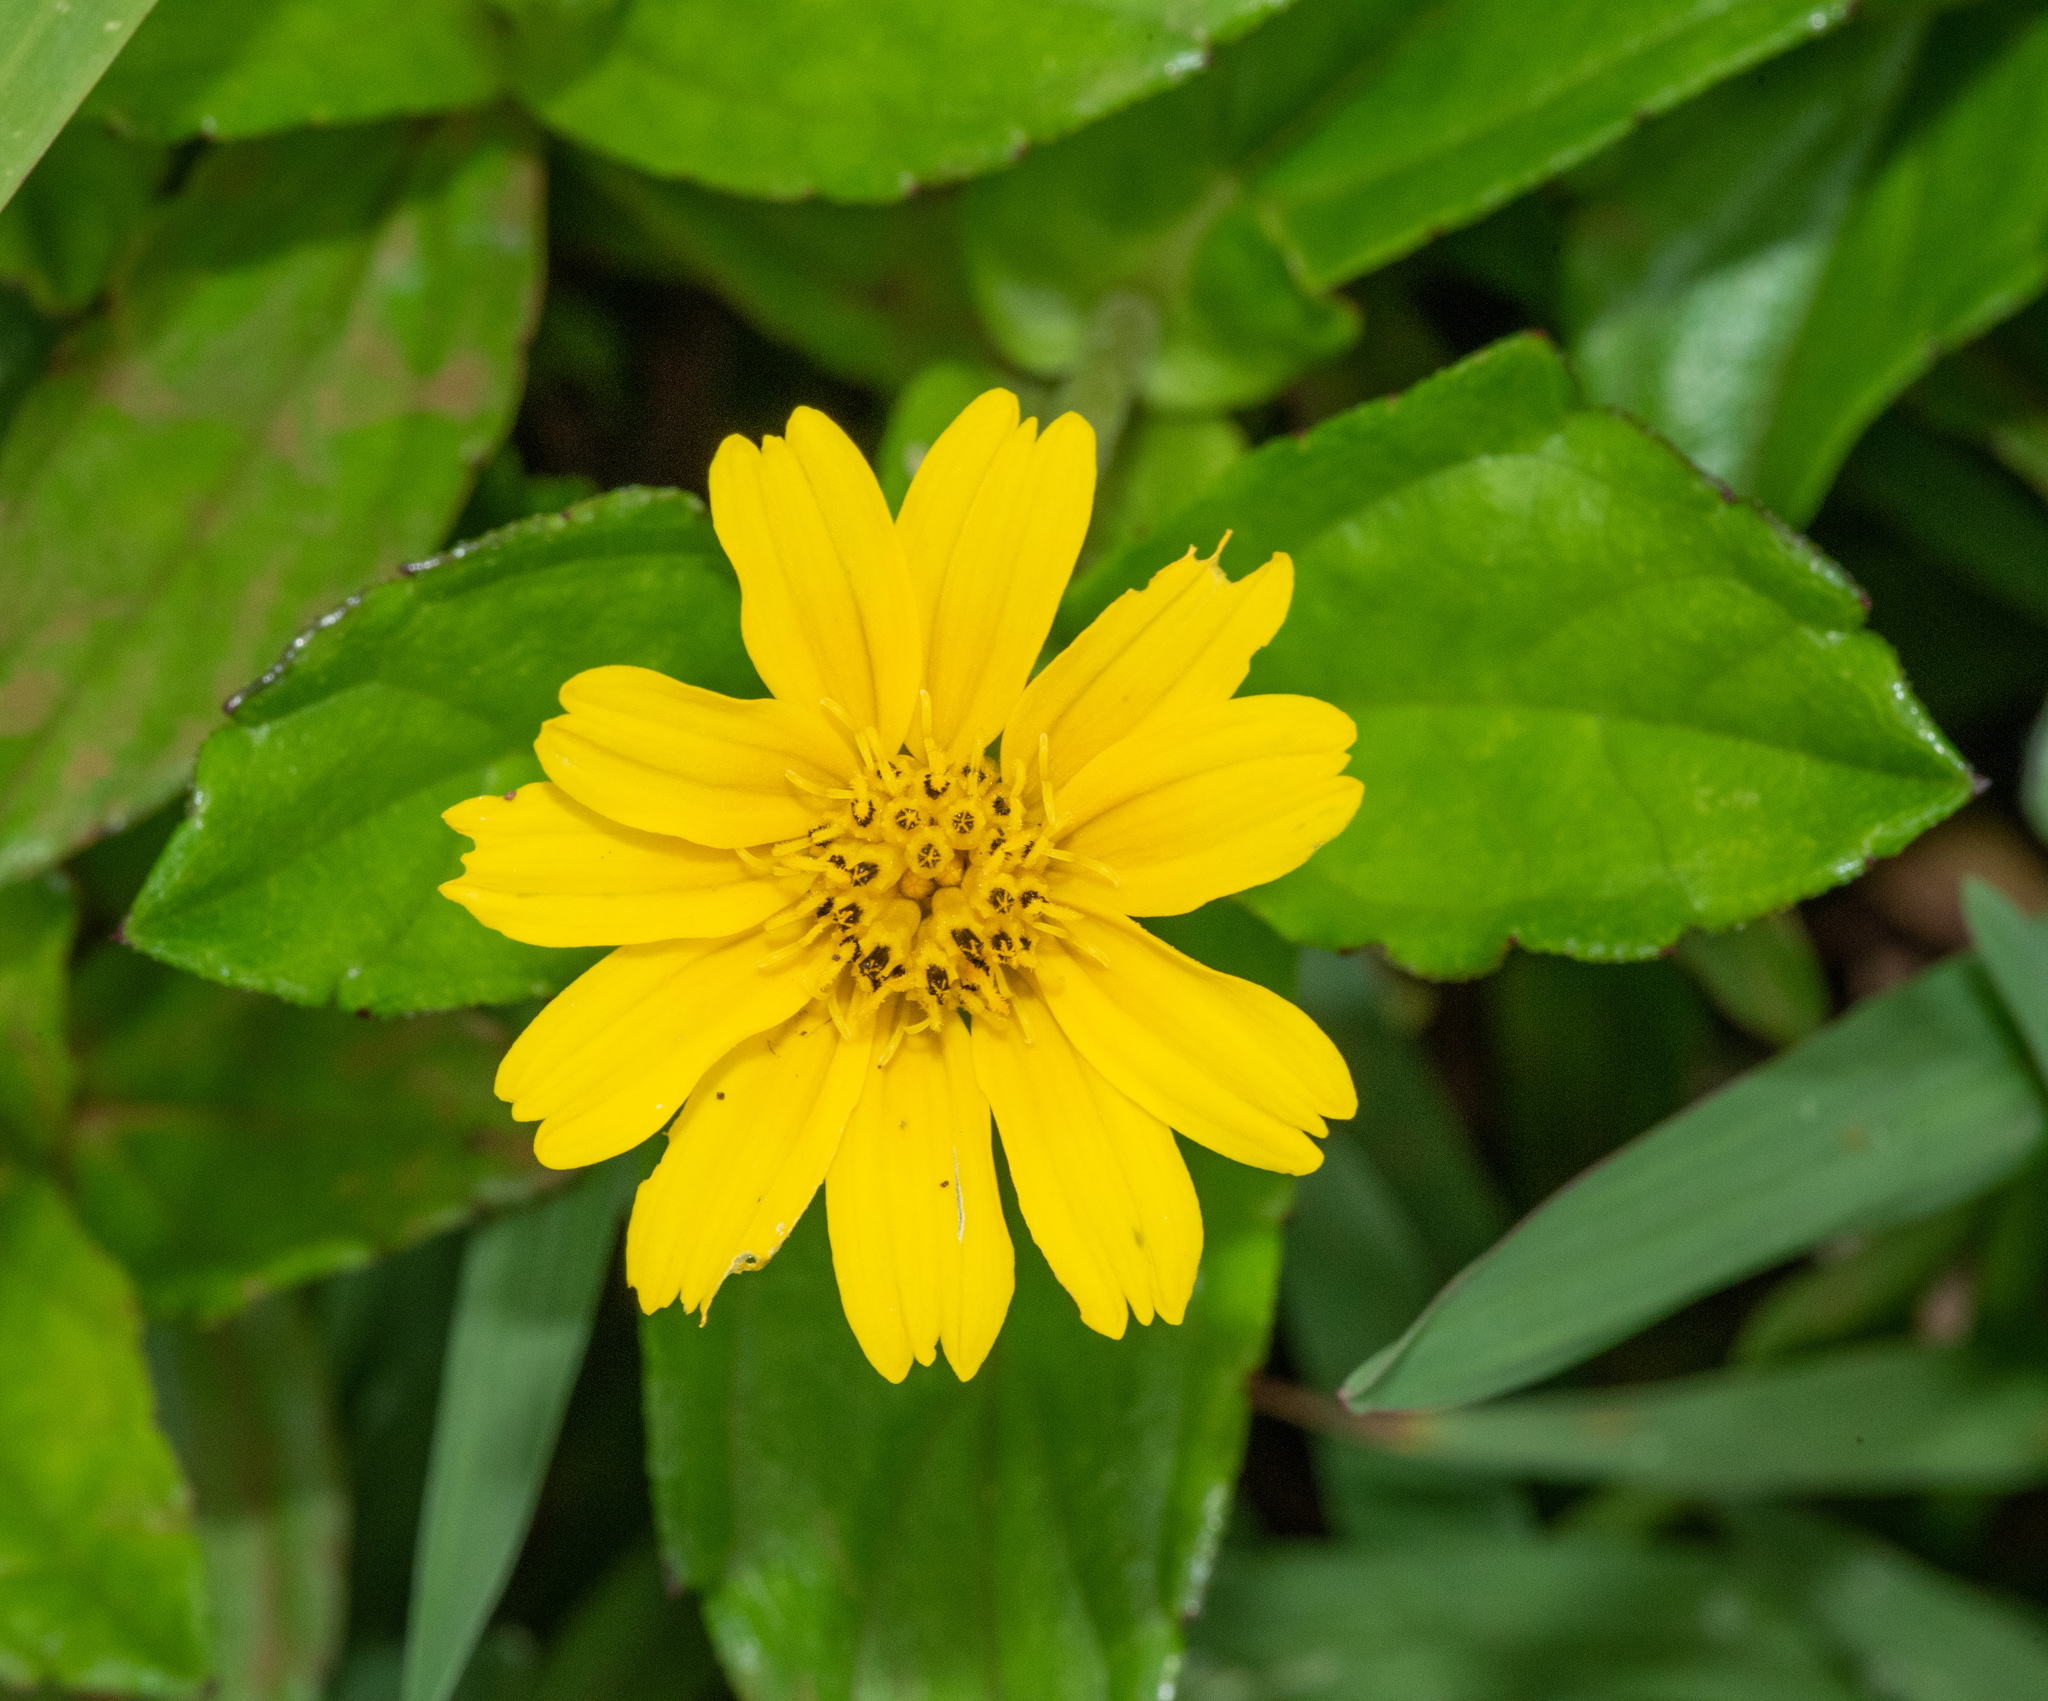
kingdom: Plantae
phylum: Tracheophyta
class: Magnoliopsida
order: Asterales
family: Asteraceae
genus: Sphagneticola
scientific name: Sphagneticola trilobata
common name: Bay biscayne creeping-oxeye
